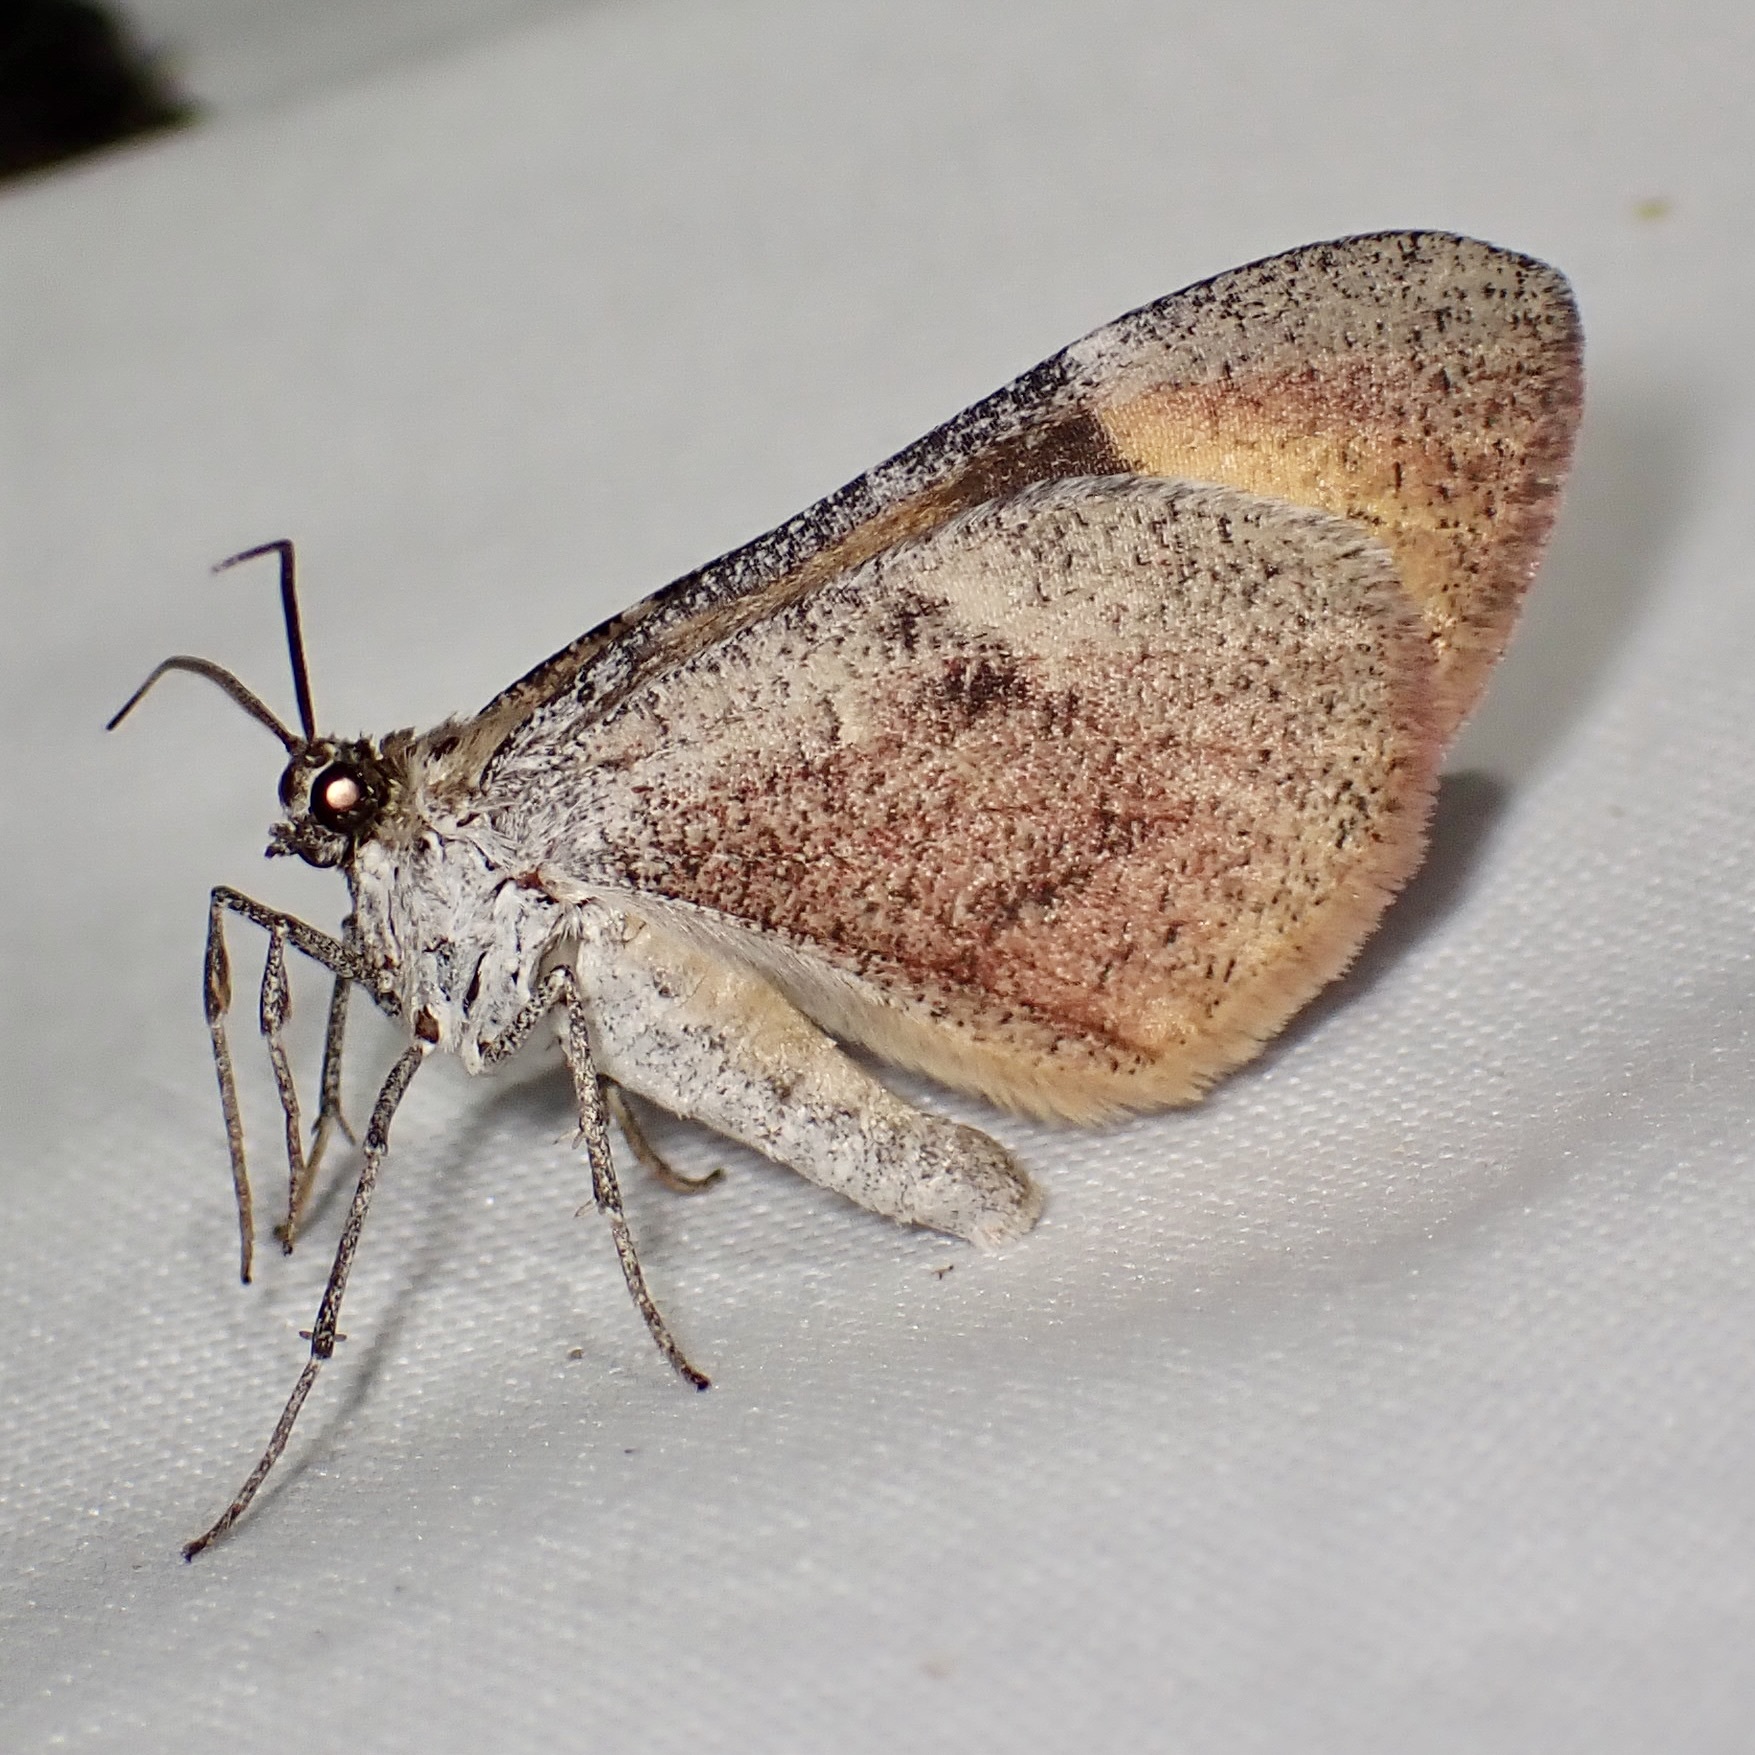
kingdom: Animalia
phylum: Arthropoda
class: Insecta
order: Lepidoptera
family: Geometridae
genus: Stamnodes
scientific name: Stamnodes seiferti
